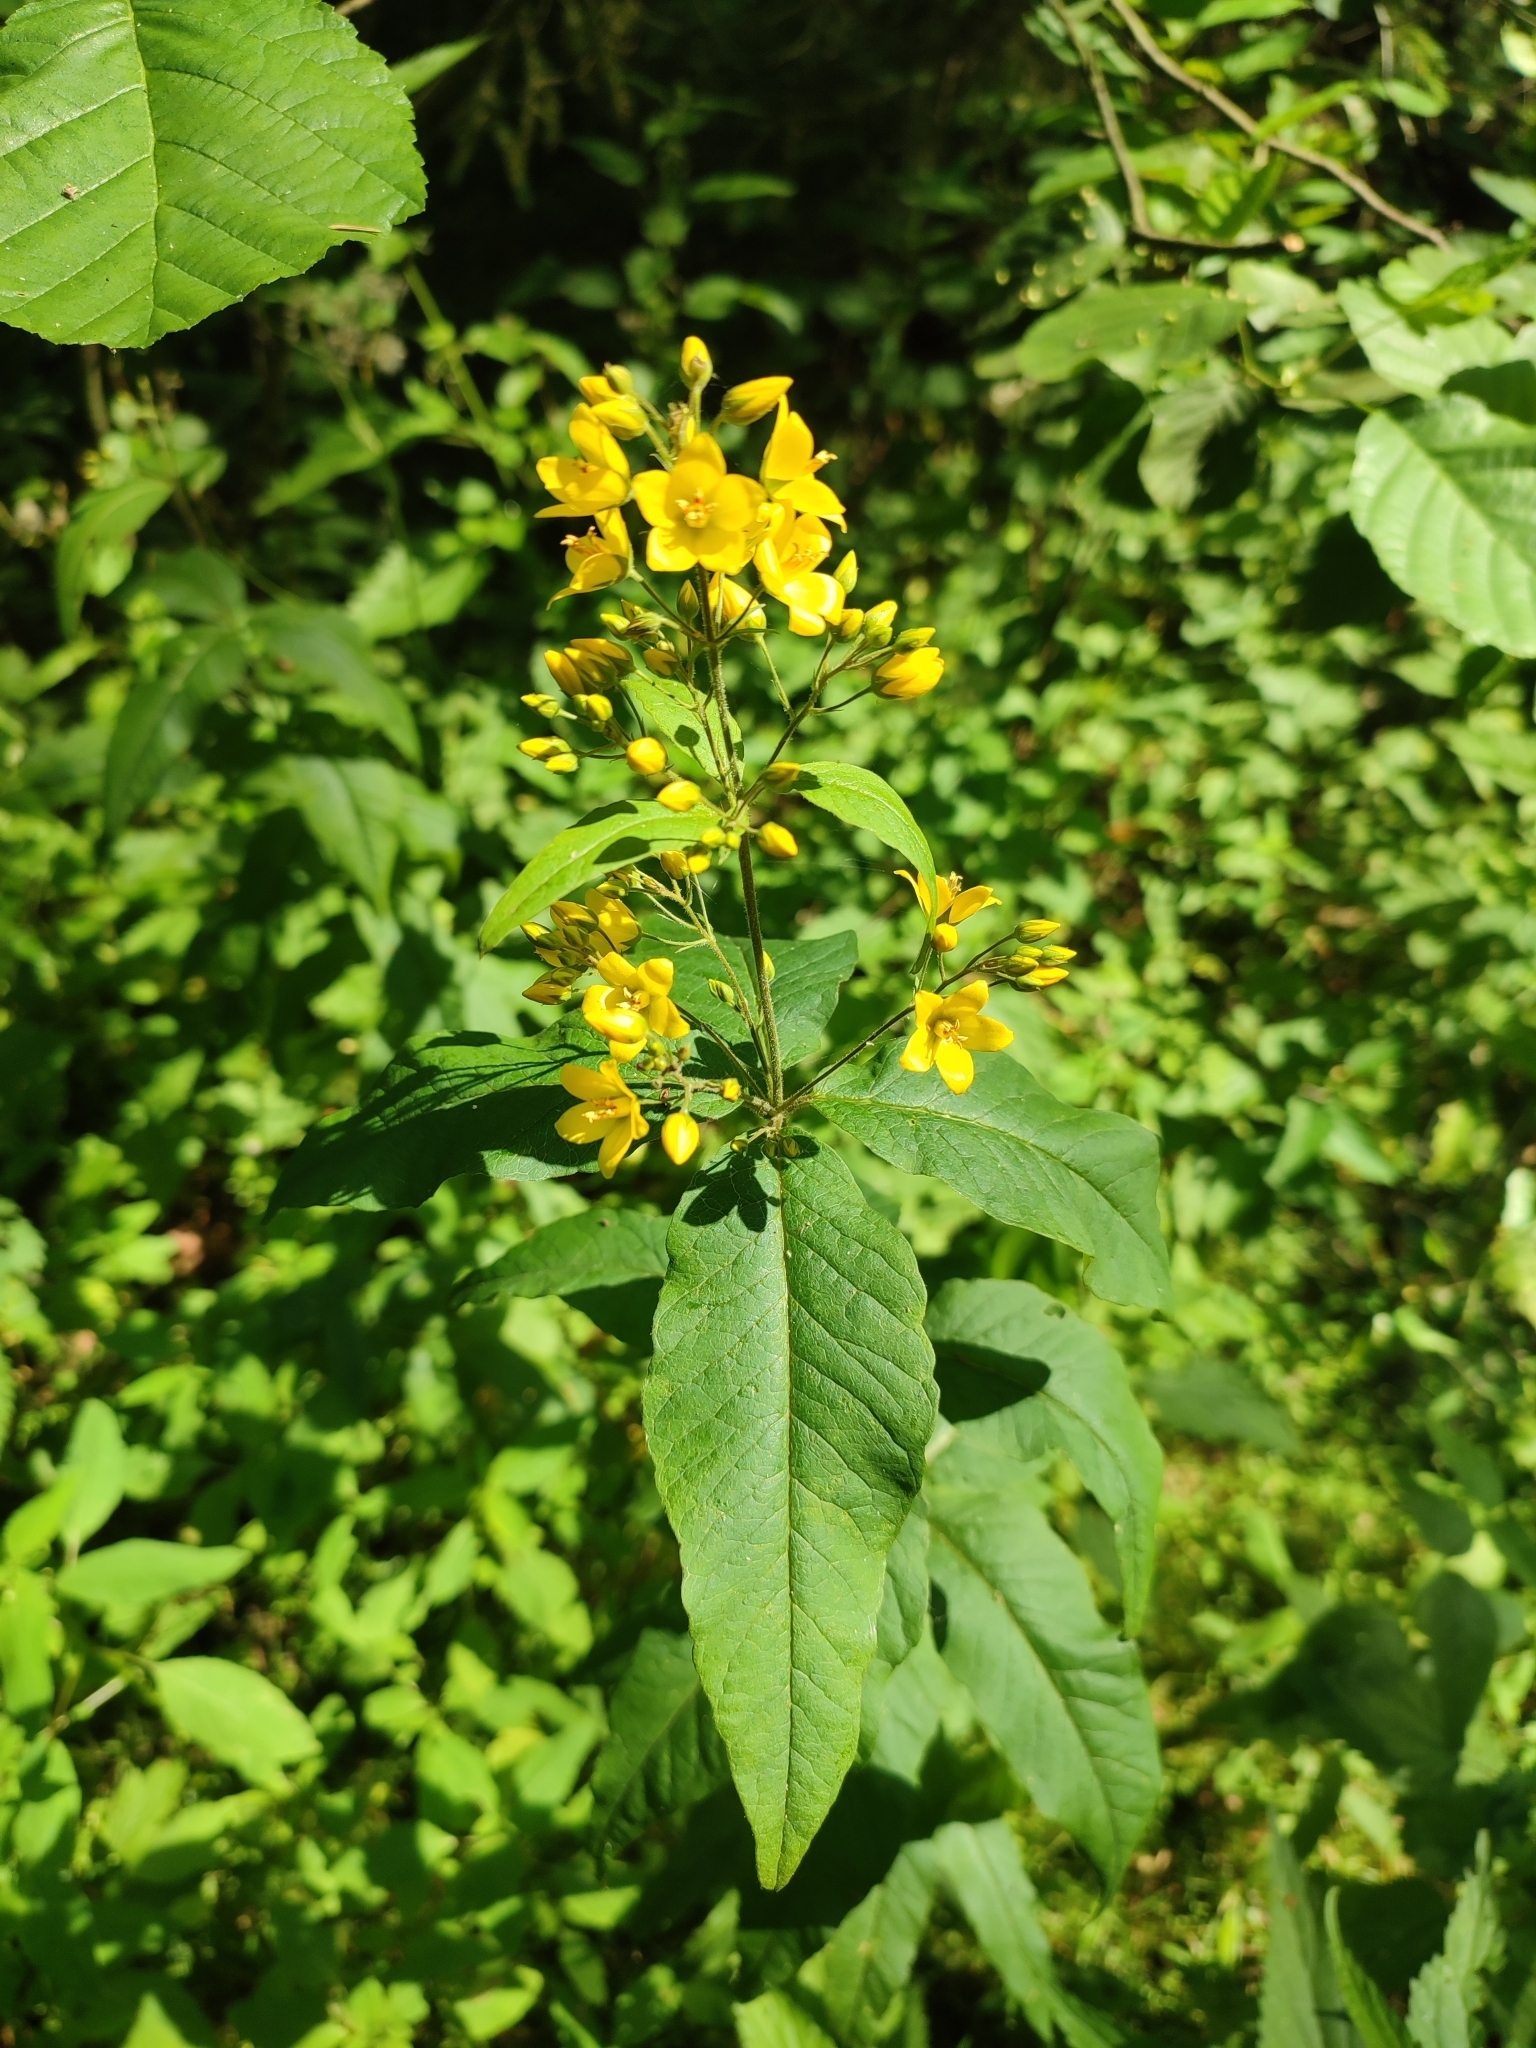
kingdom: Plantae
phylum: Tracheophyta
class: Magnoliopsida
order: Ericales
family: Primulaceae
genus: Lysimachia
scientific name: Lysimachia vulgaris
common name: Yellow loosestrife
